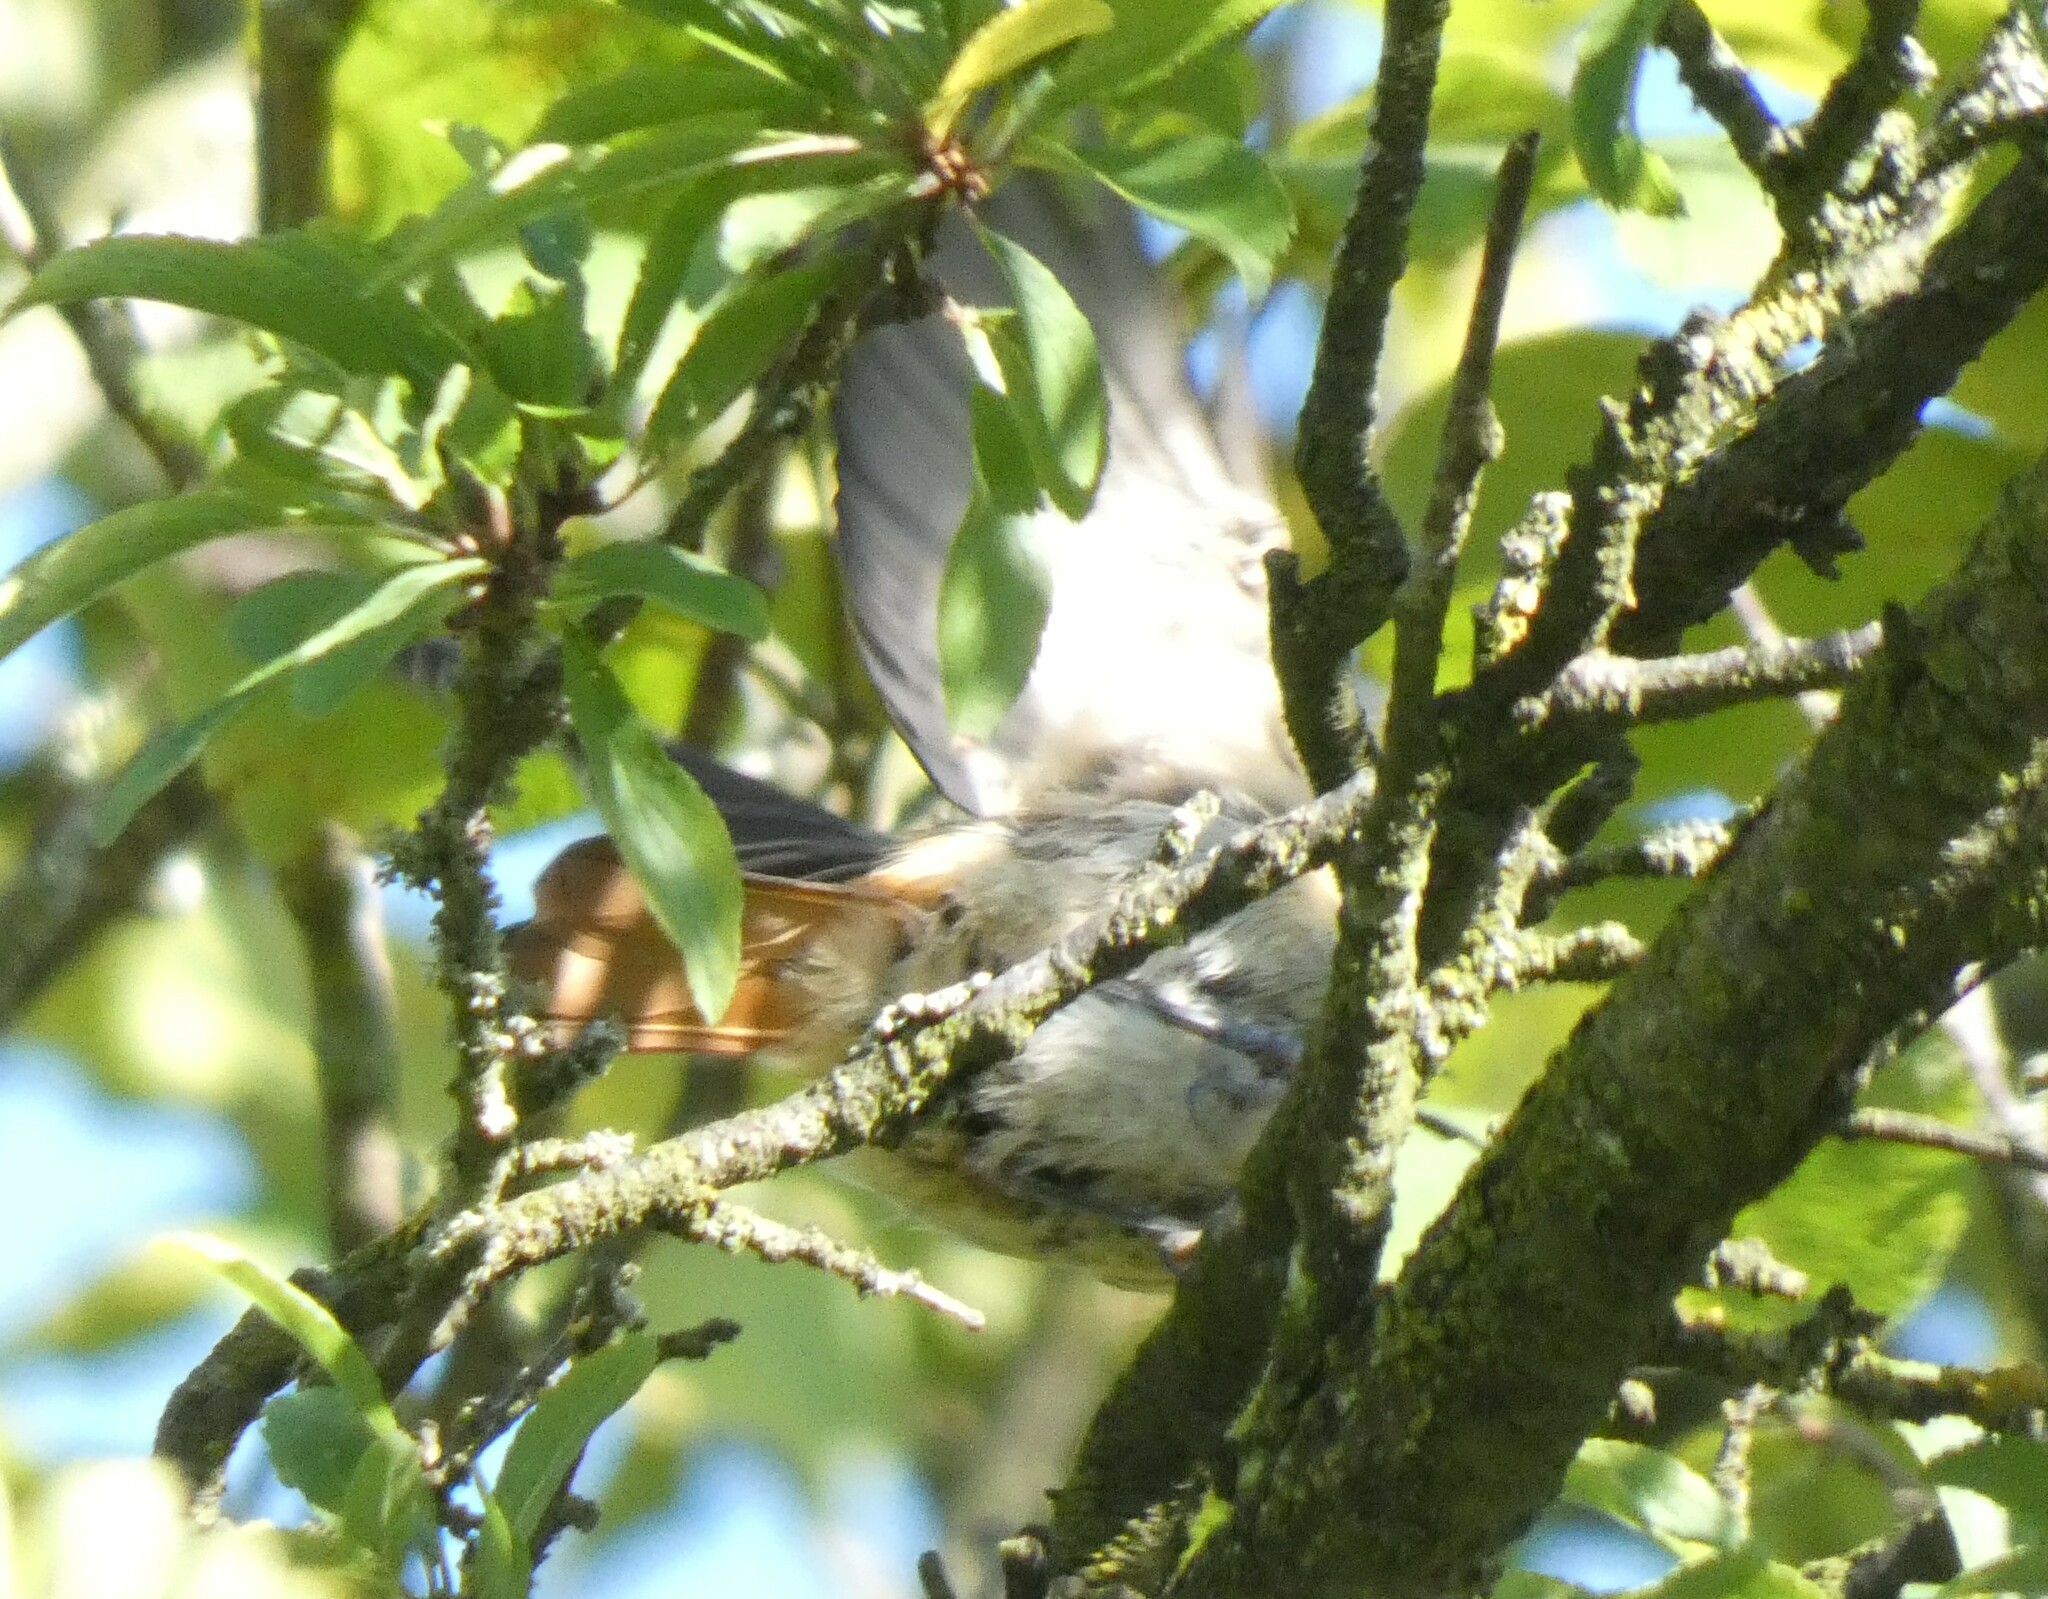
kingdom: Animalia
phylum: Chordata
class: Aves
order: Passeriformes
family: Muscicapidae
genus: Phoenicurus
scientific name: Phoenicurus phoenicurus
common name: Common redstart
